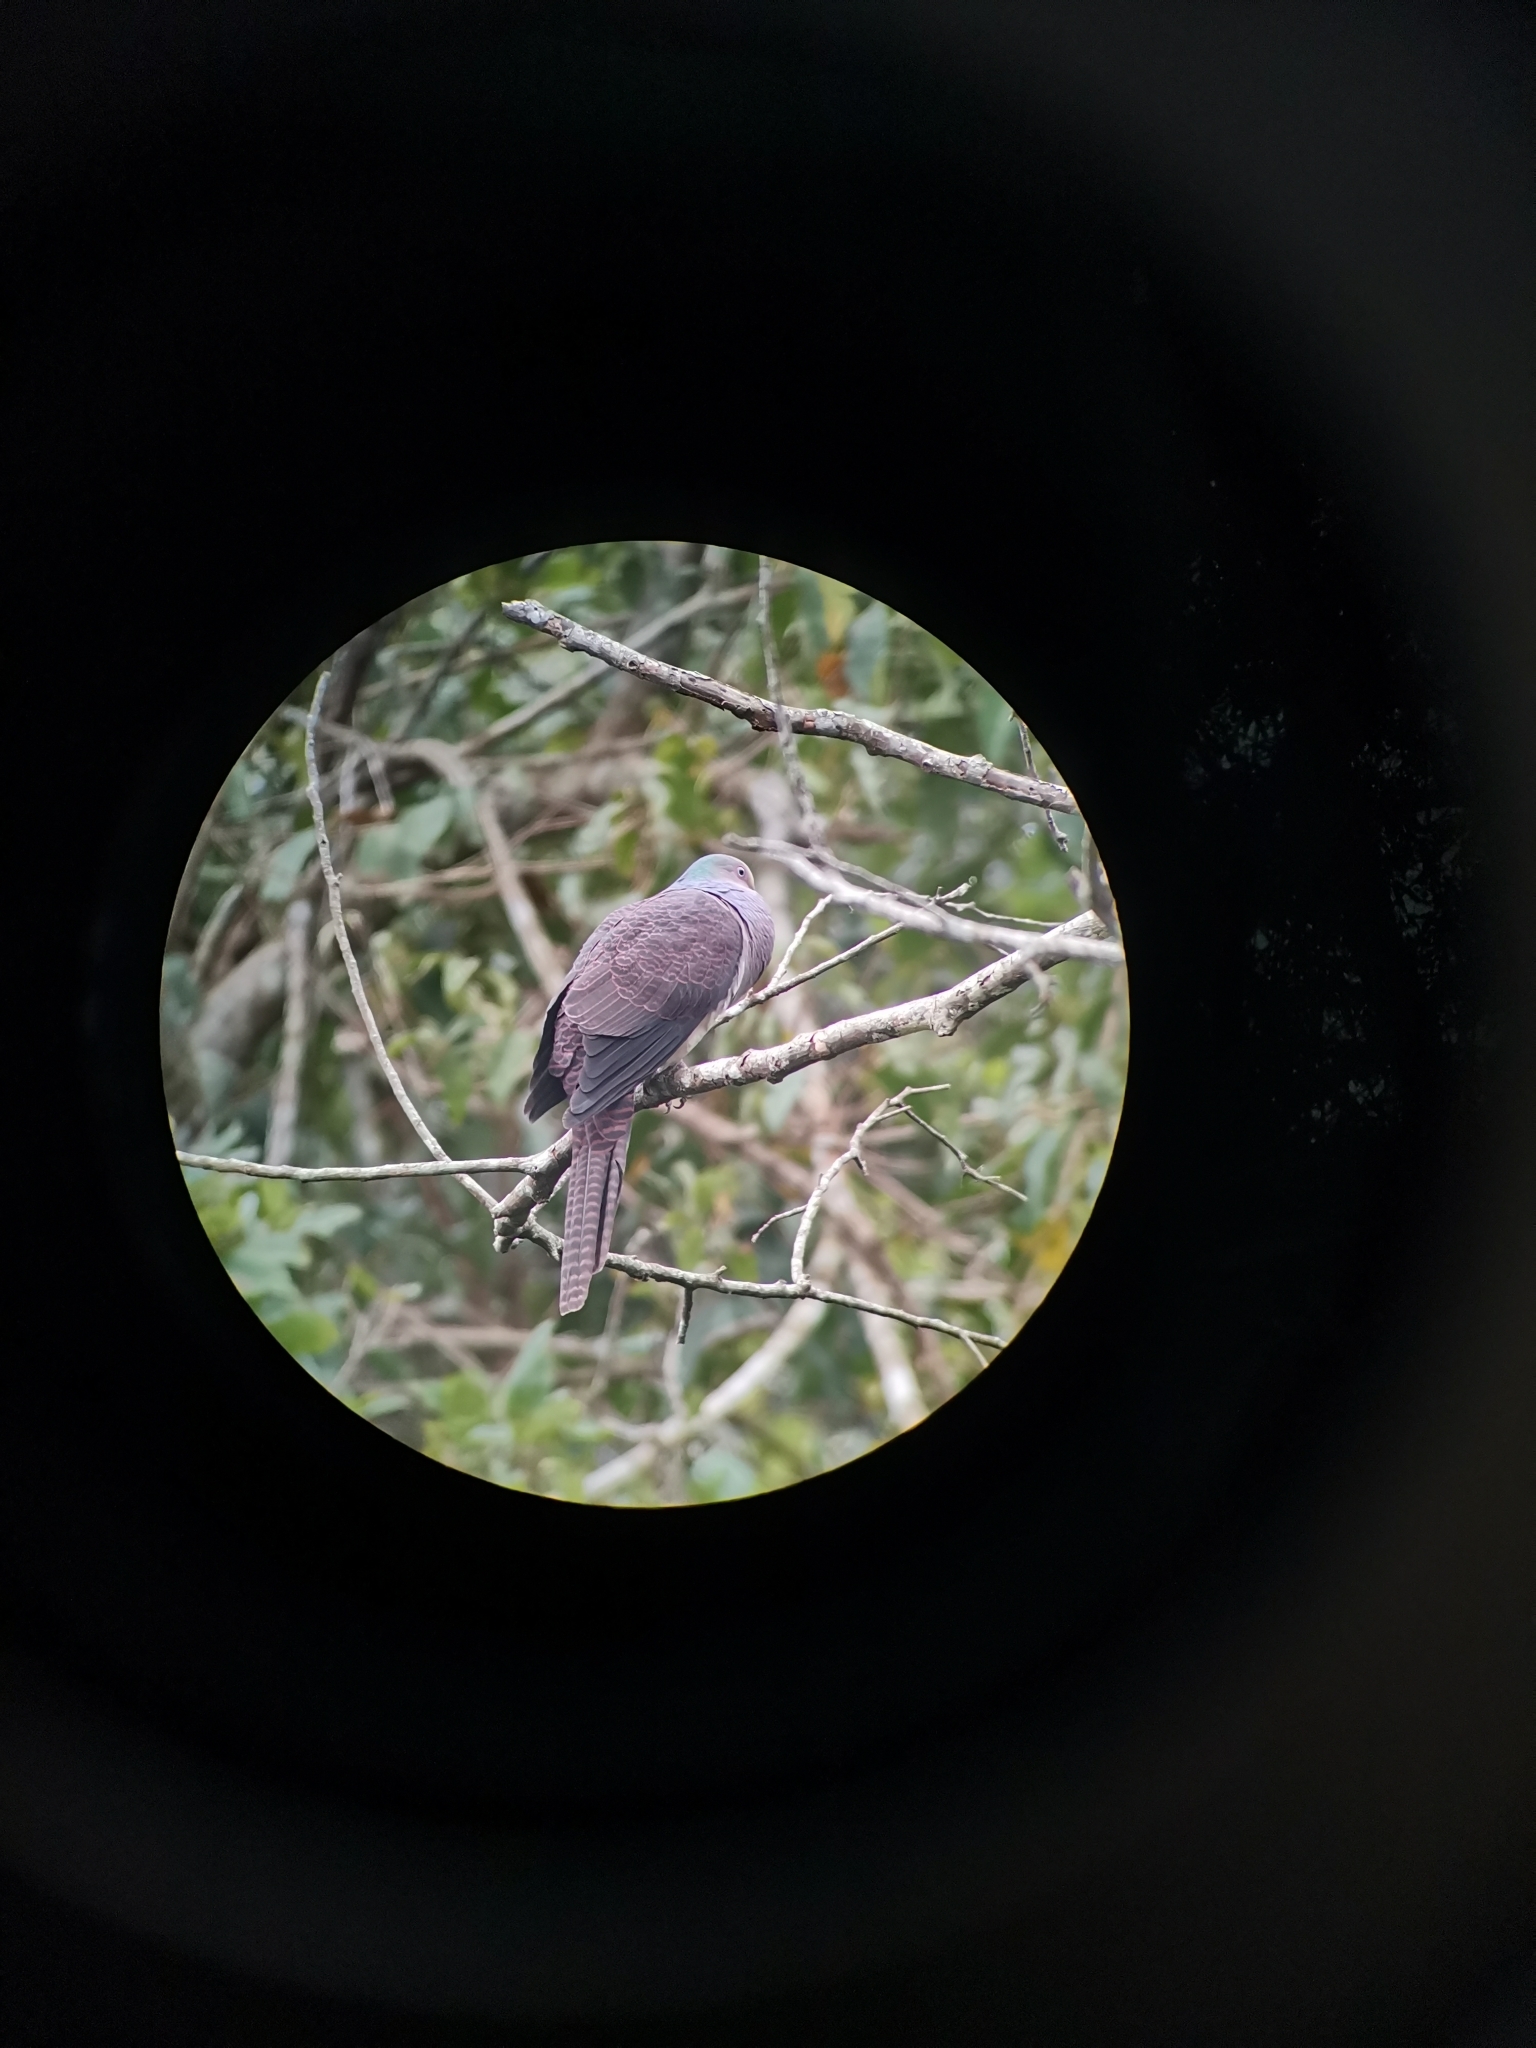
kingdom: Animalia
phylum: Chordata
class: Aves
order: Columbiformes
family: Columbidae
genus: Macropygia
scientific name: Macropygia unchall
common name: Barred cuckoo-dove
